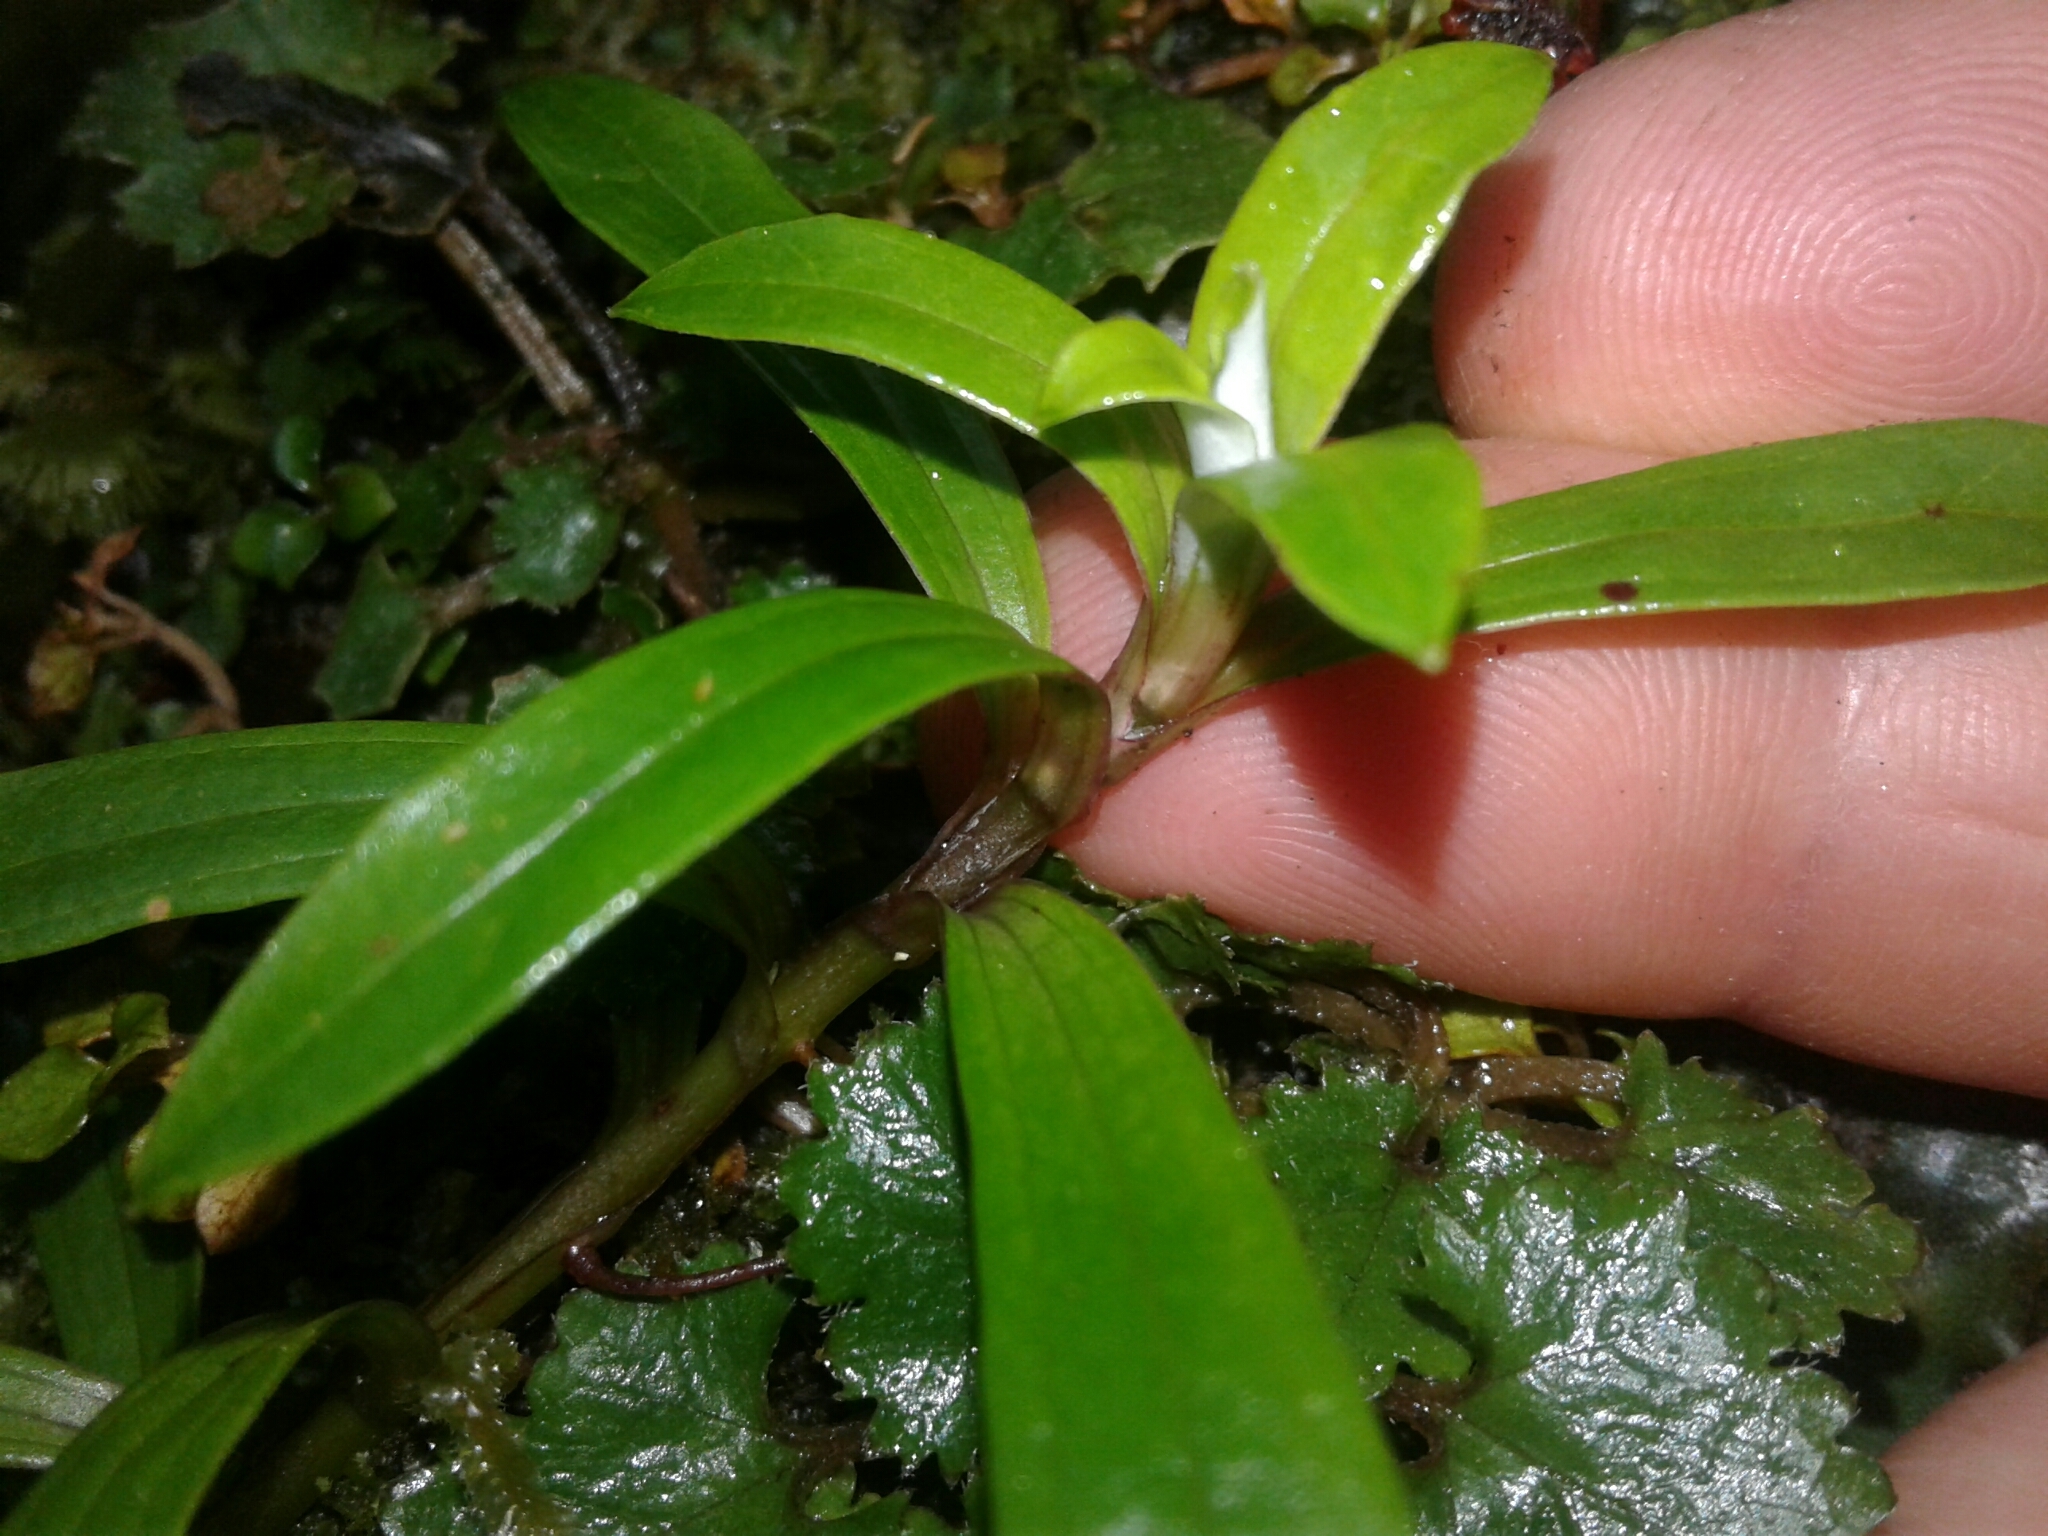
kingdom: Plantae
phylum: Tracheophyta
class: Magnoliopsida
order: Asterales
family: Asteraceae
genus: Anaphalioides
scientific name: Anaphalioides trinervis
